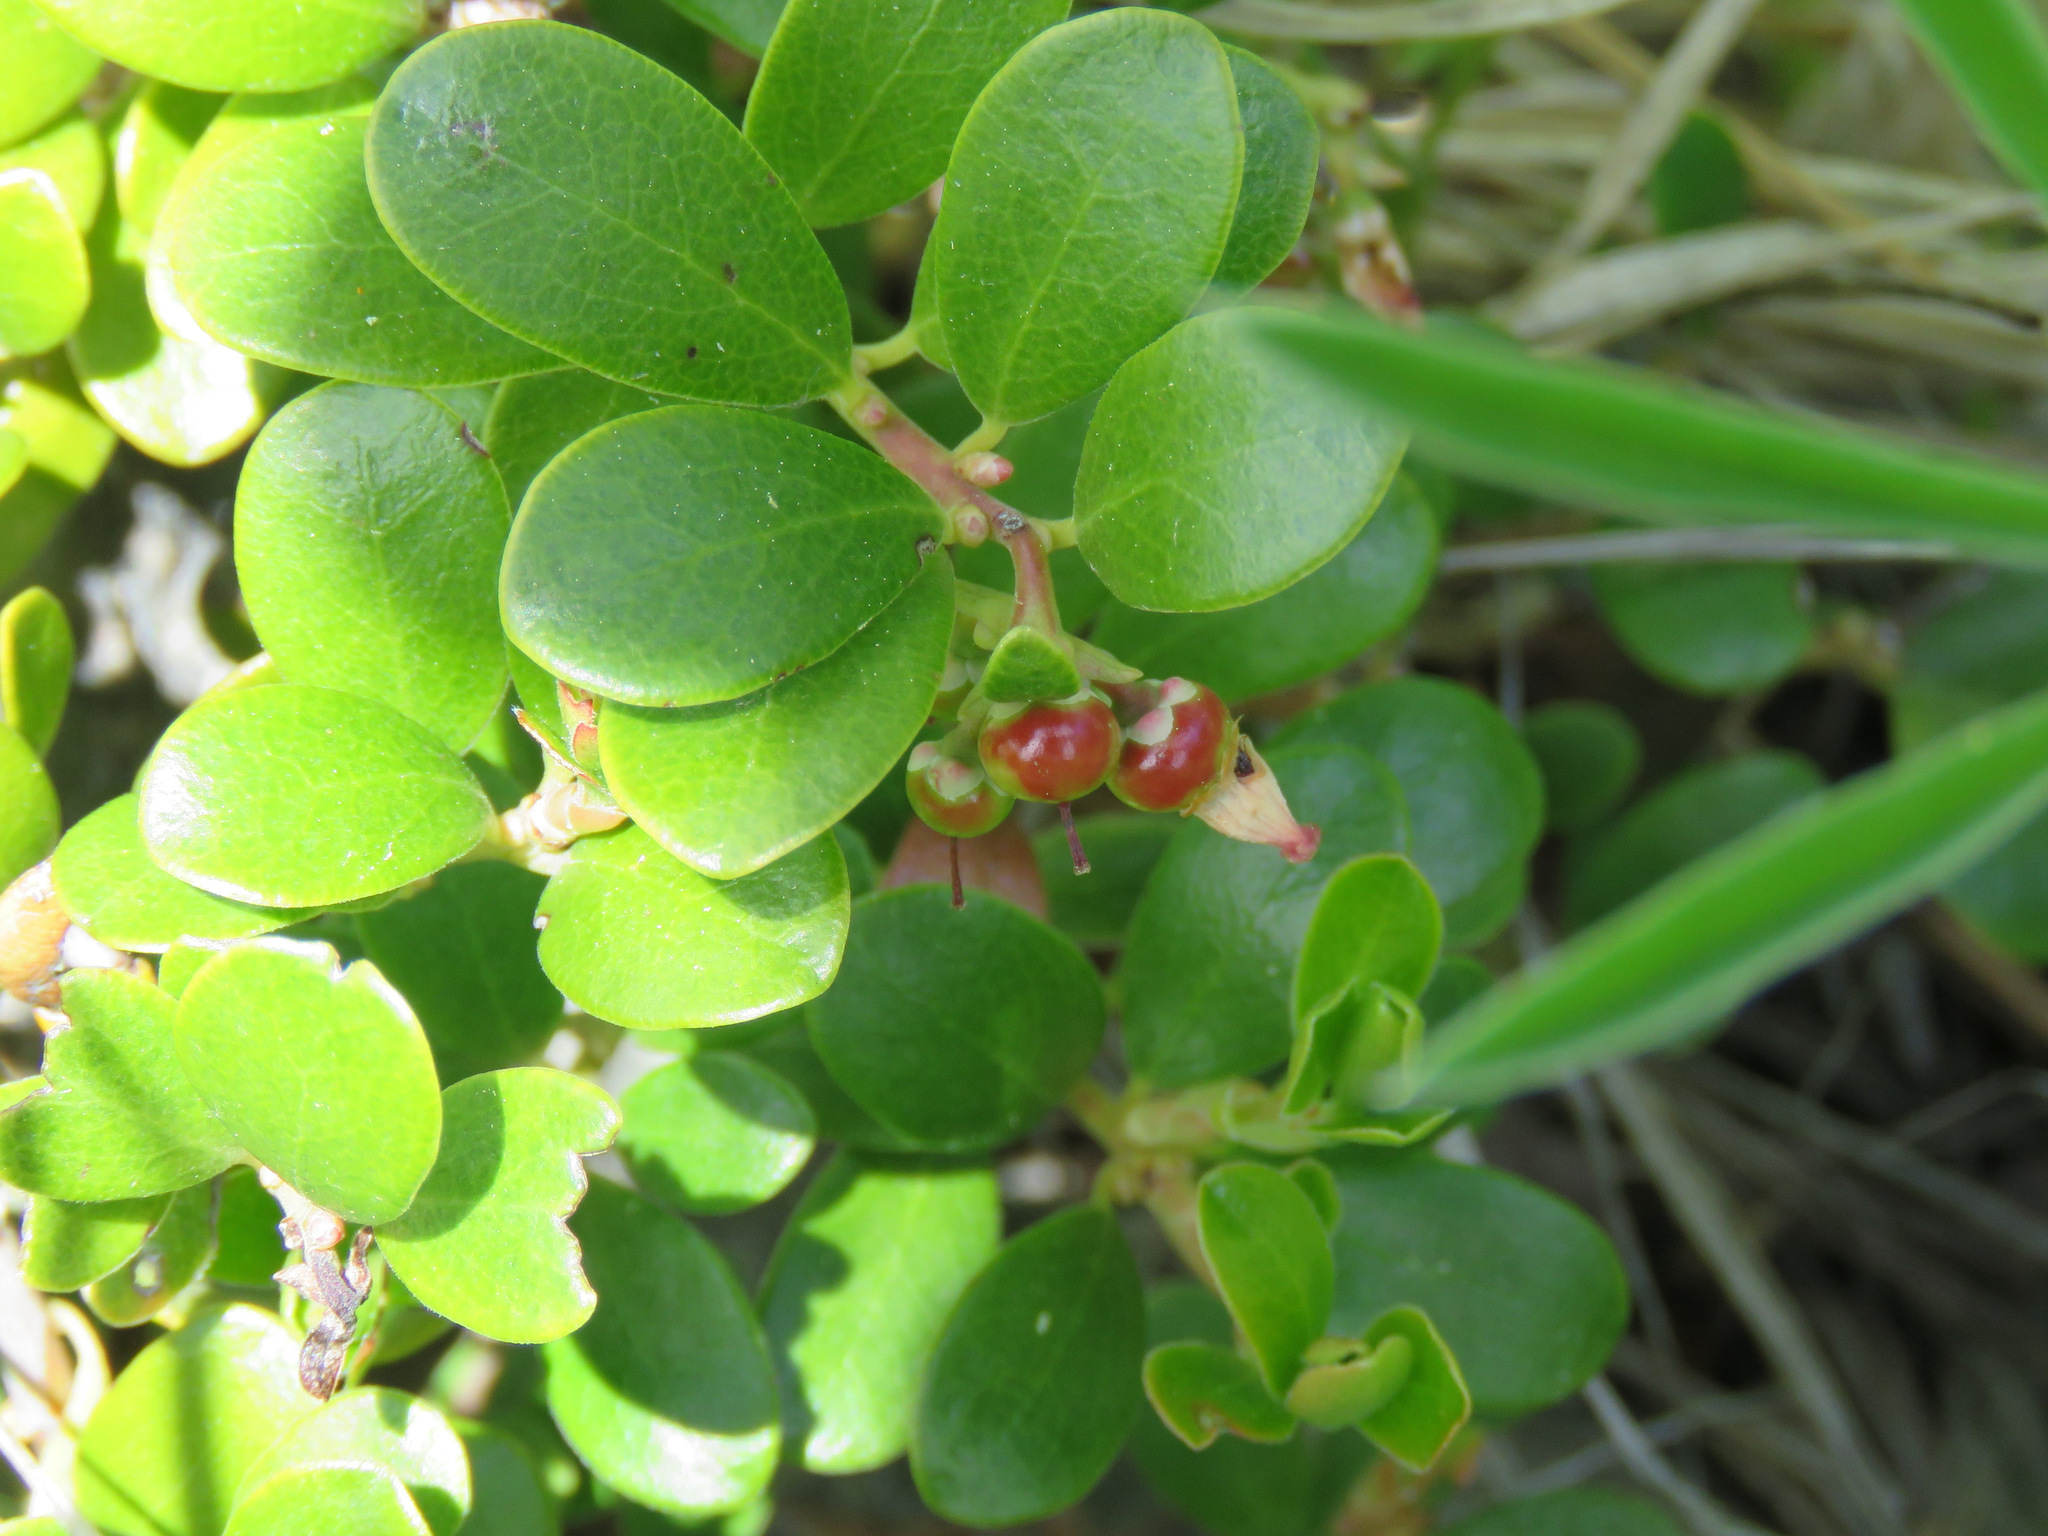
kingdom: Plantae
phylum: Tracheophyta
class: Magnoliopsida
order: Ericales
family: Ericaceae
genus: Arctostaphylos
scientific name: Arctostaphylos uva-ursi
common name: Bearberry
